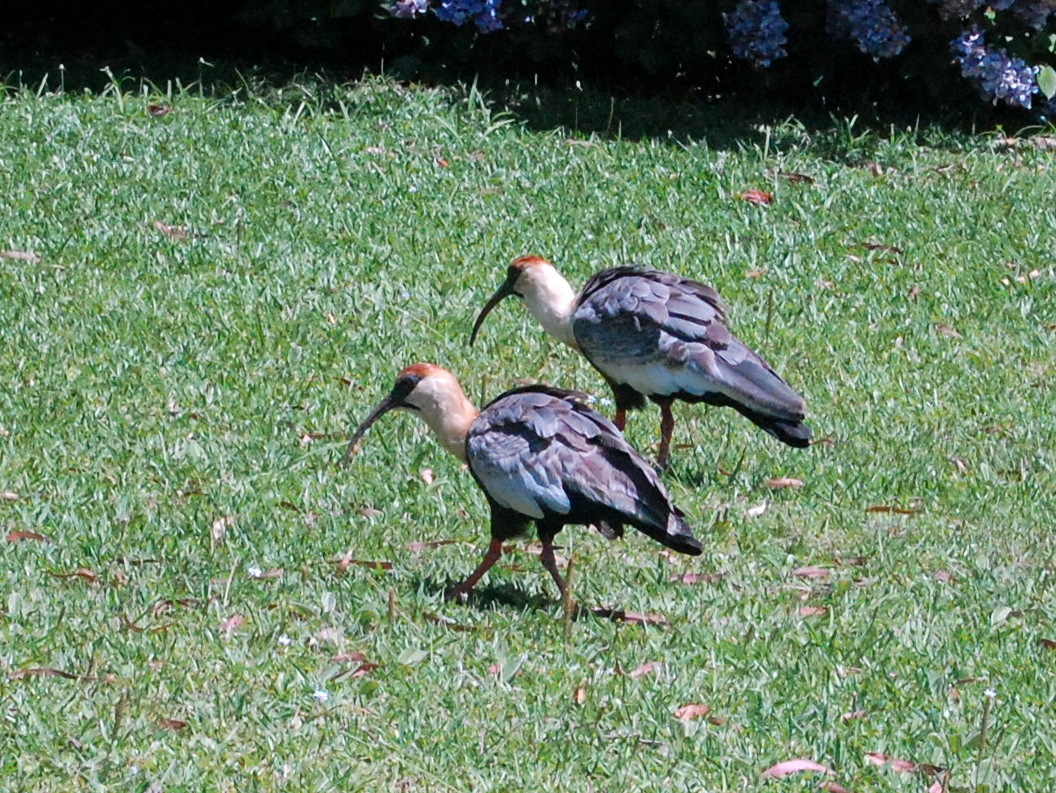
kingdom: Animalia
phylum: Chordata
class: Aves
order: Pelecaniformes
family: Threskiornithidae
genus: Theristicus
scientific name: Theristicus caudatus
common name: Buff-necked ibis
